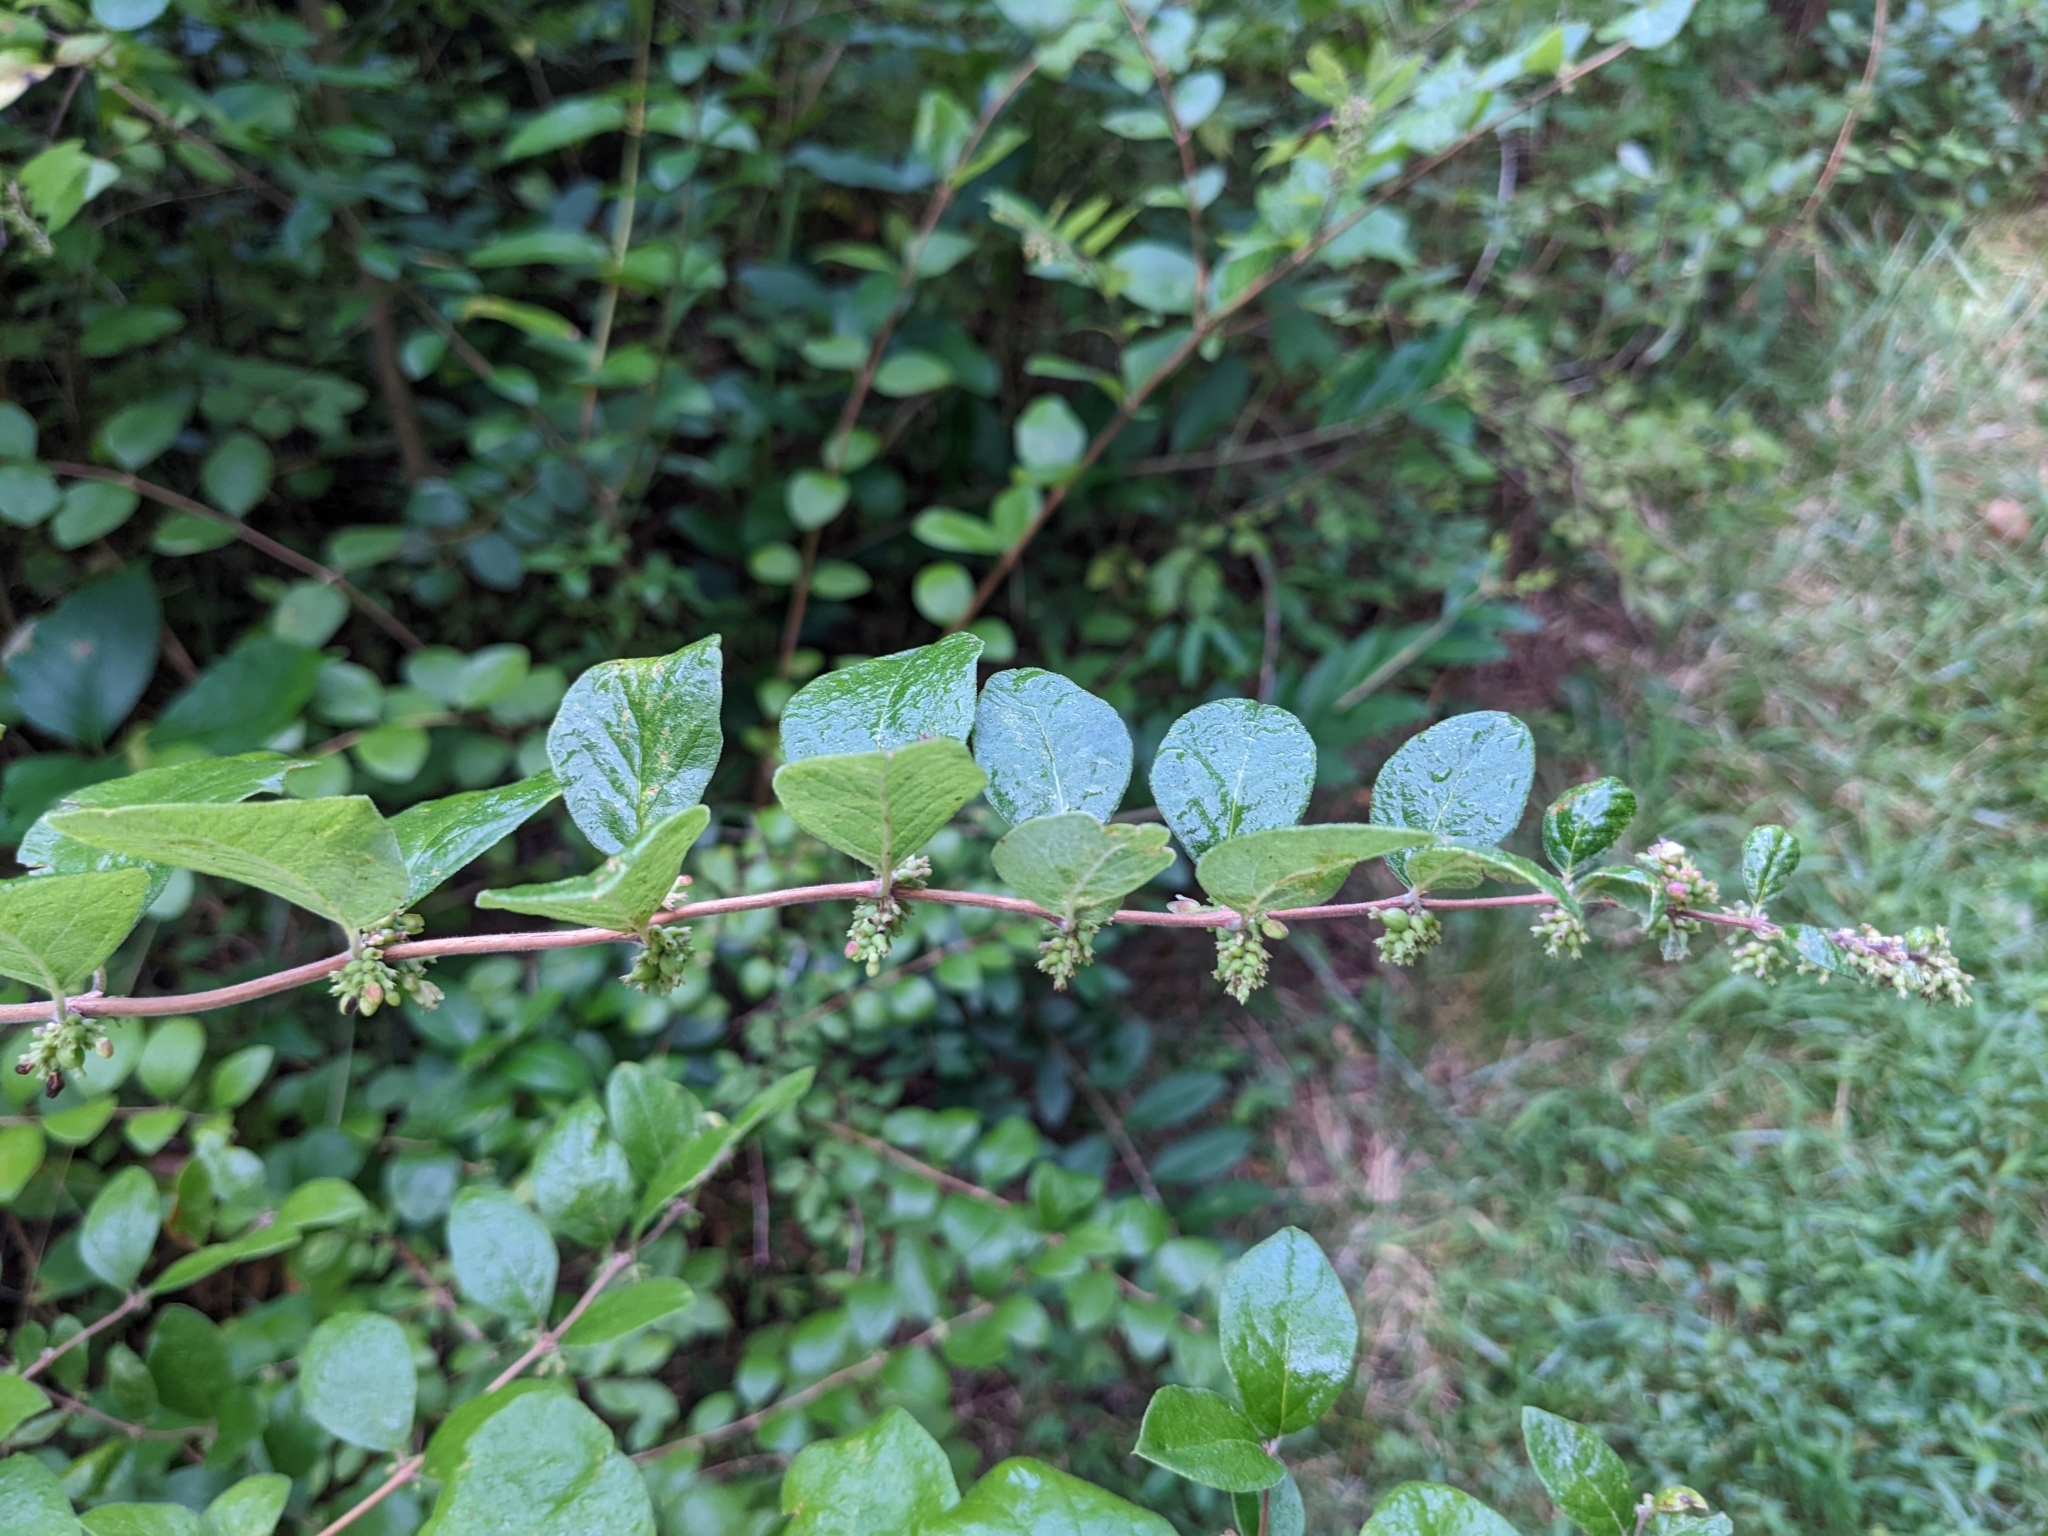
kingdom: Plantae
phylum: Tracheophyta
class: Magnoliopsida
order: Dipsacales
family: Caprifoliaceae
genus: Symphoricarpos
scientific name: Symphoricarpos orbiculatus
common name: Coralberry
